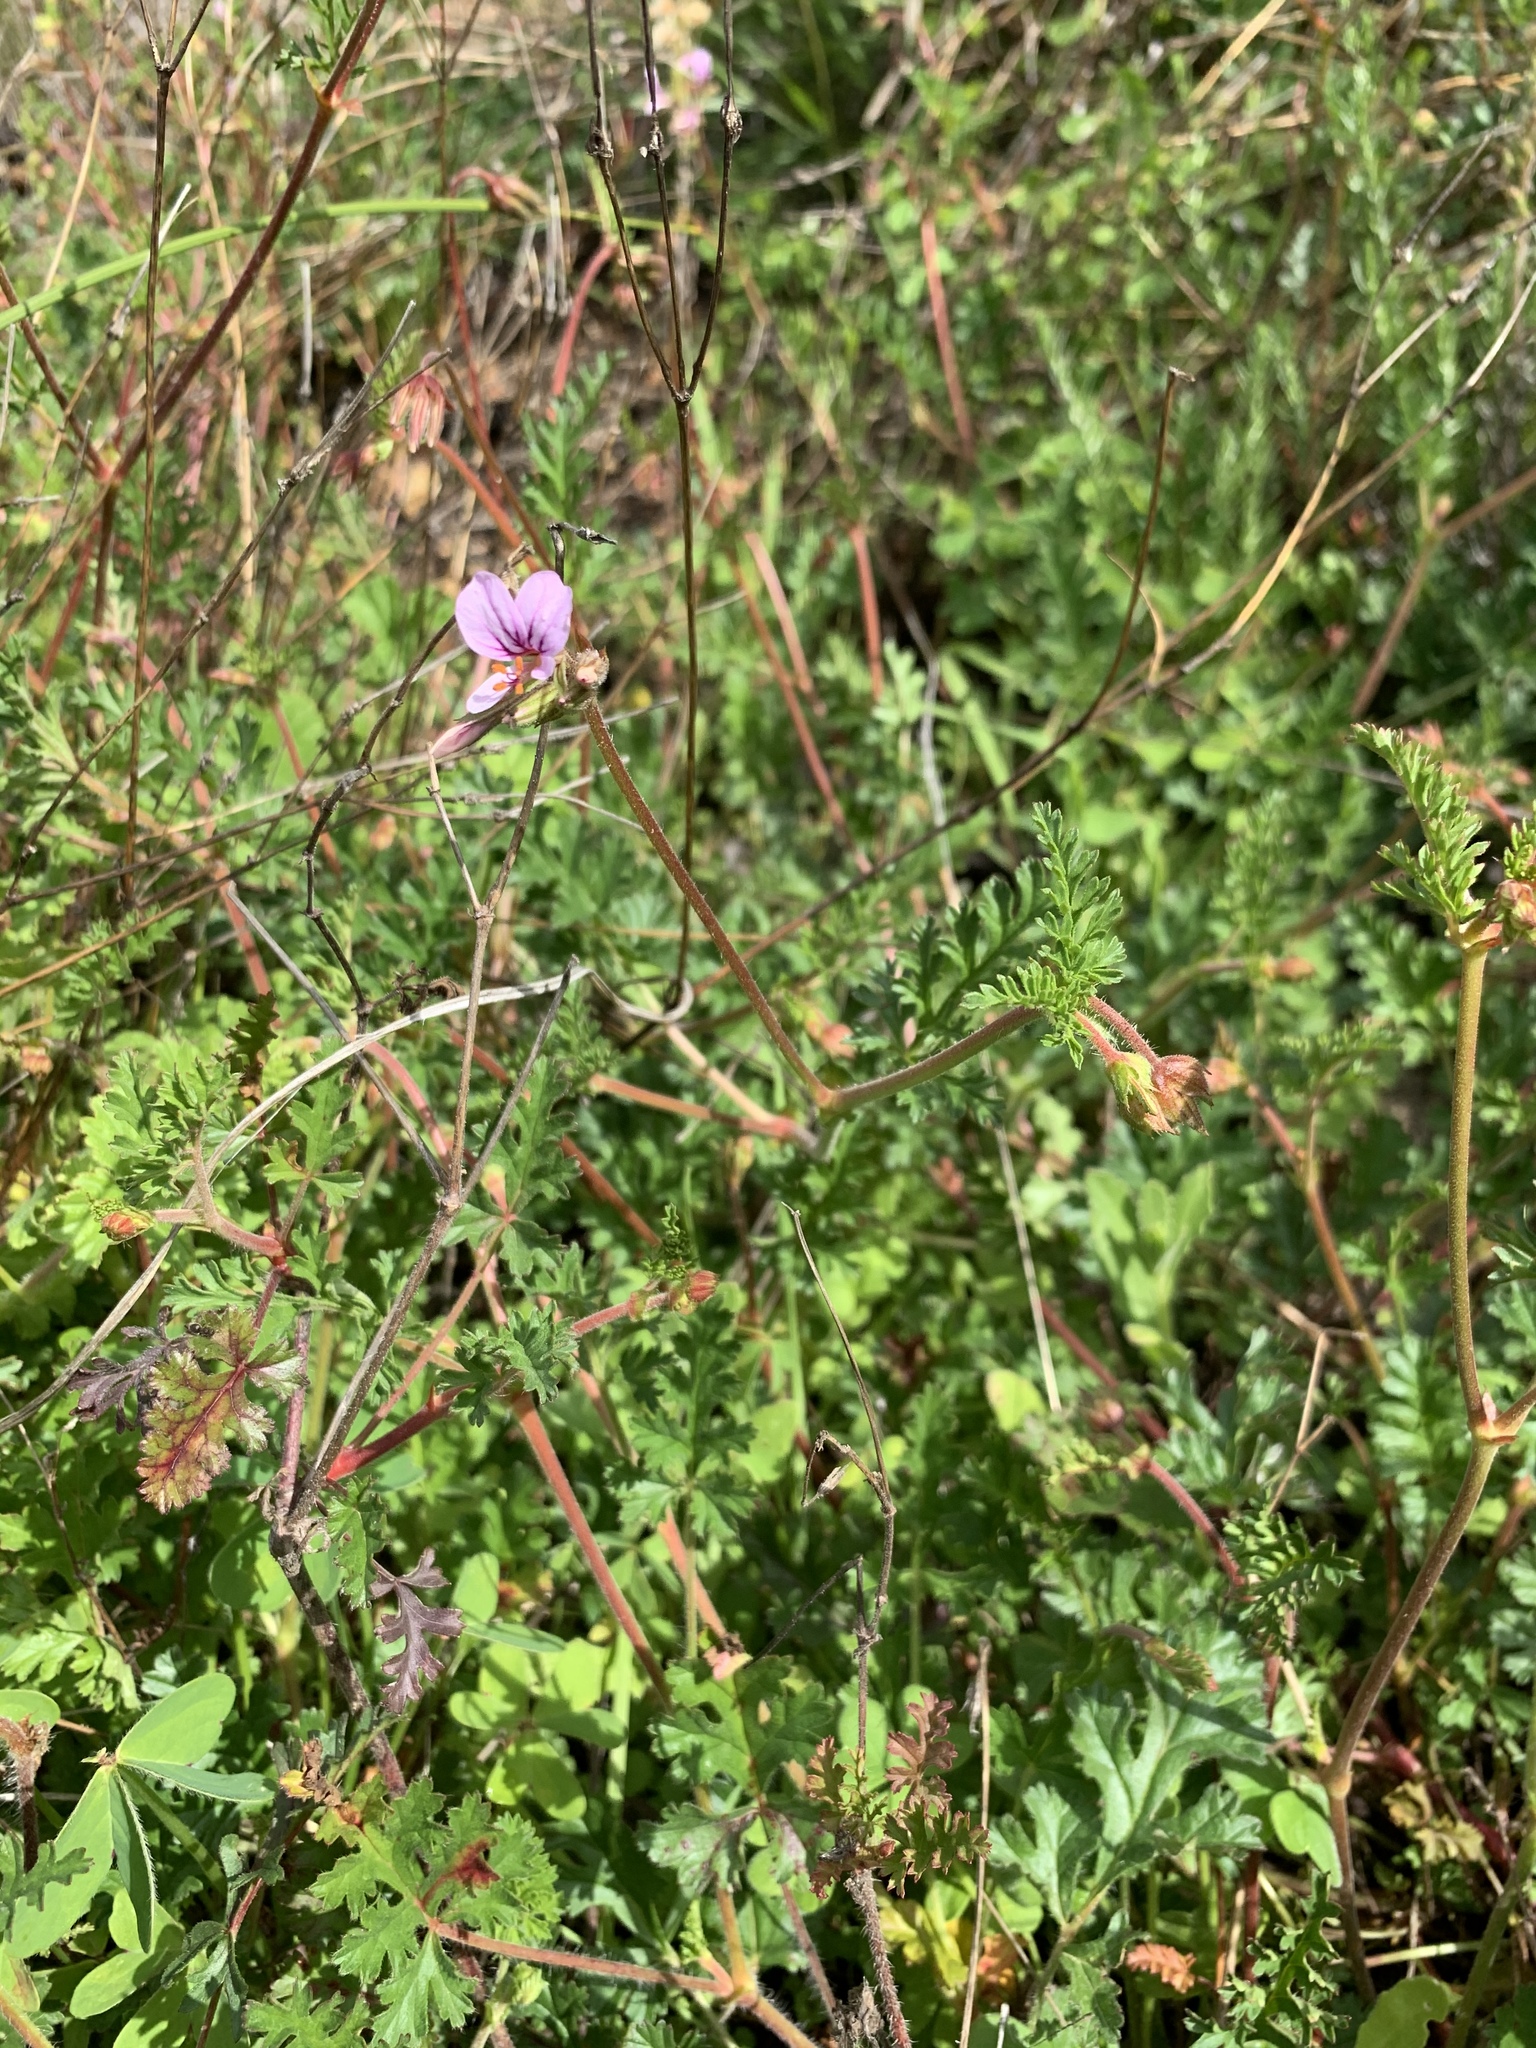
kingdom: Plantae
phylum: Tracheophyta
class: Magnoliopsida
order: Geraniales
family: Geraniaceae
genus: Pelargonium
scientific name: Pelargonium myrrhifolium
